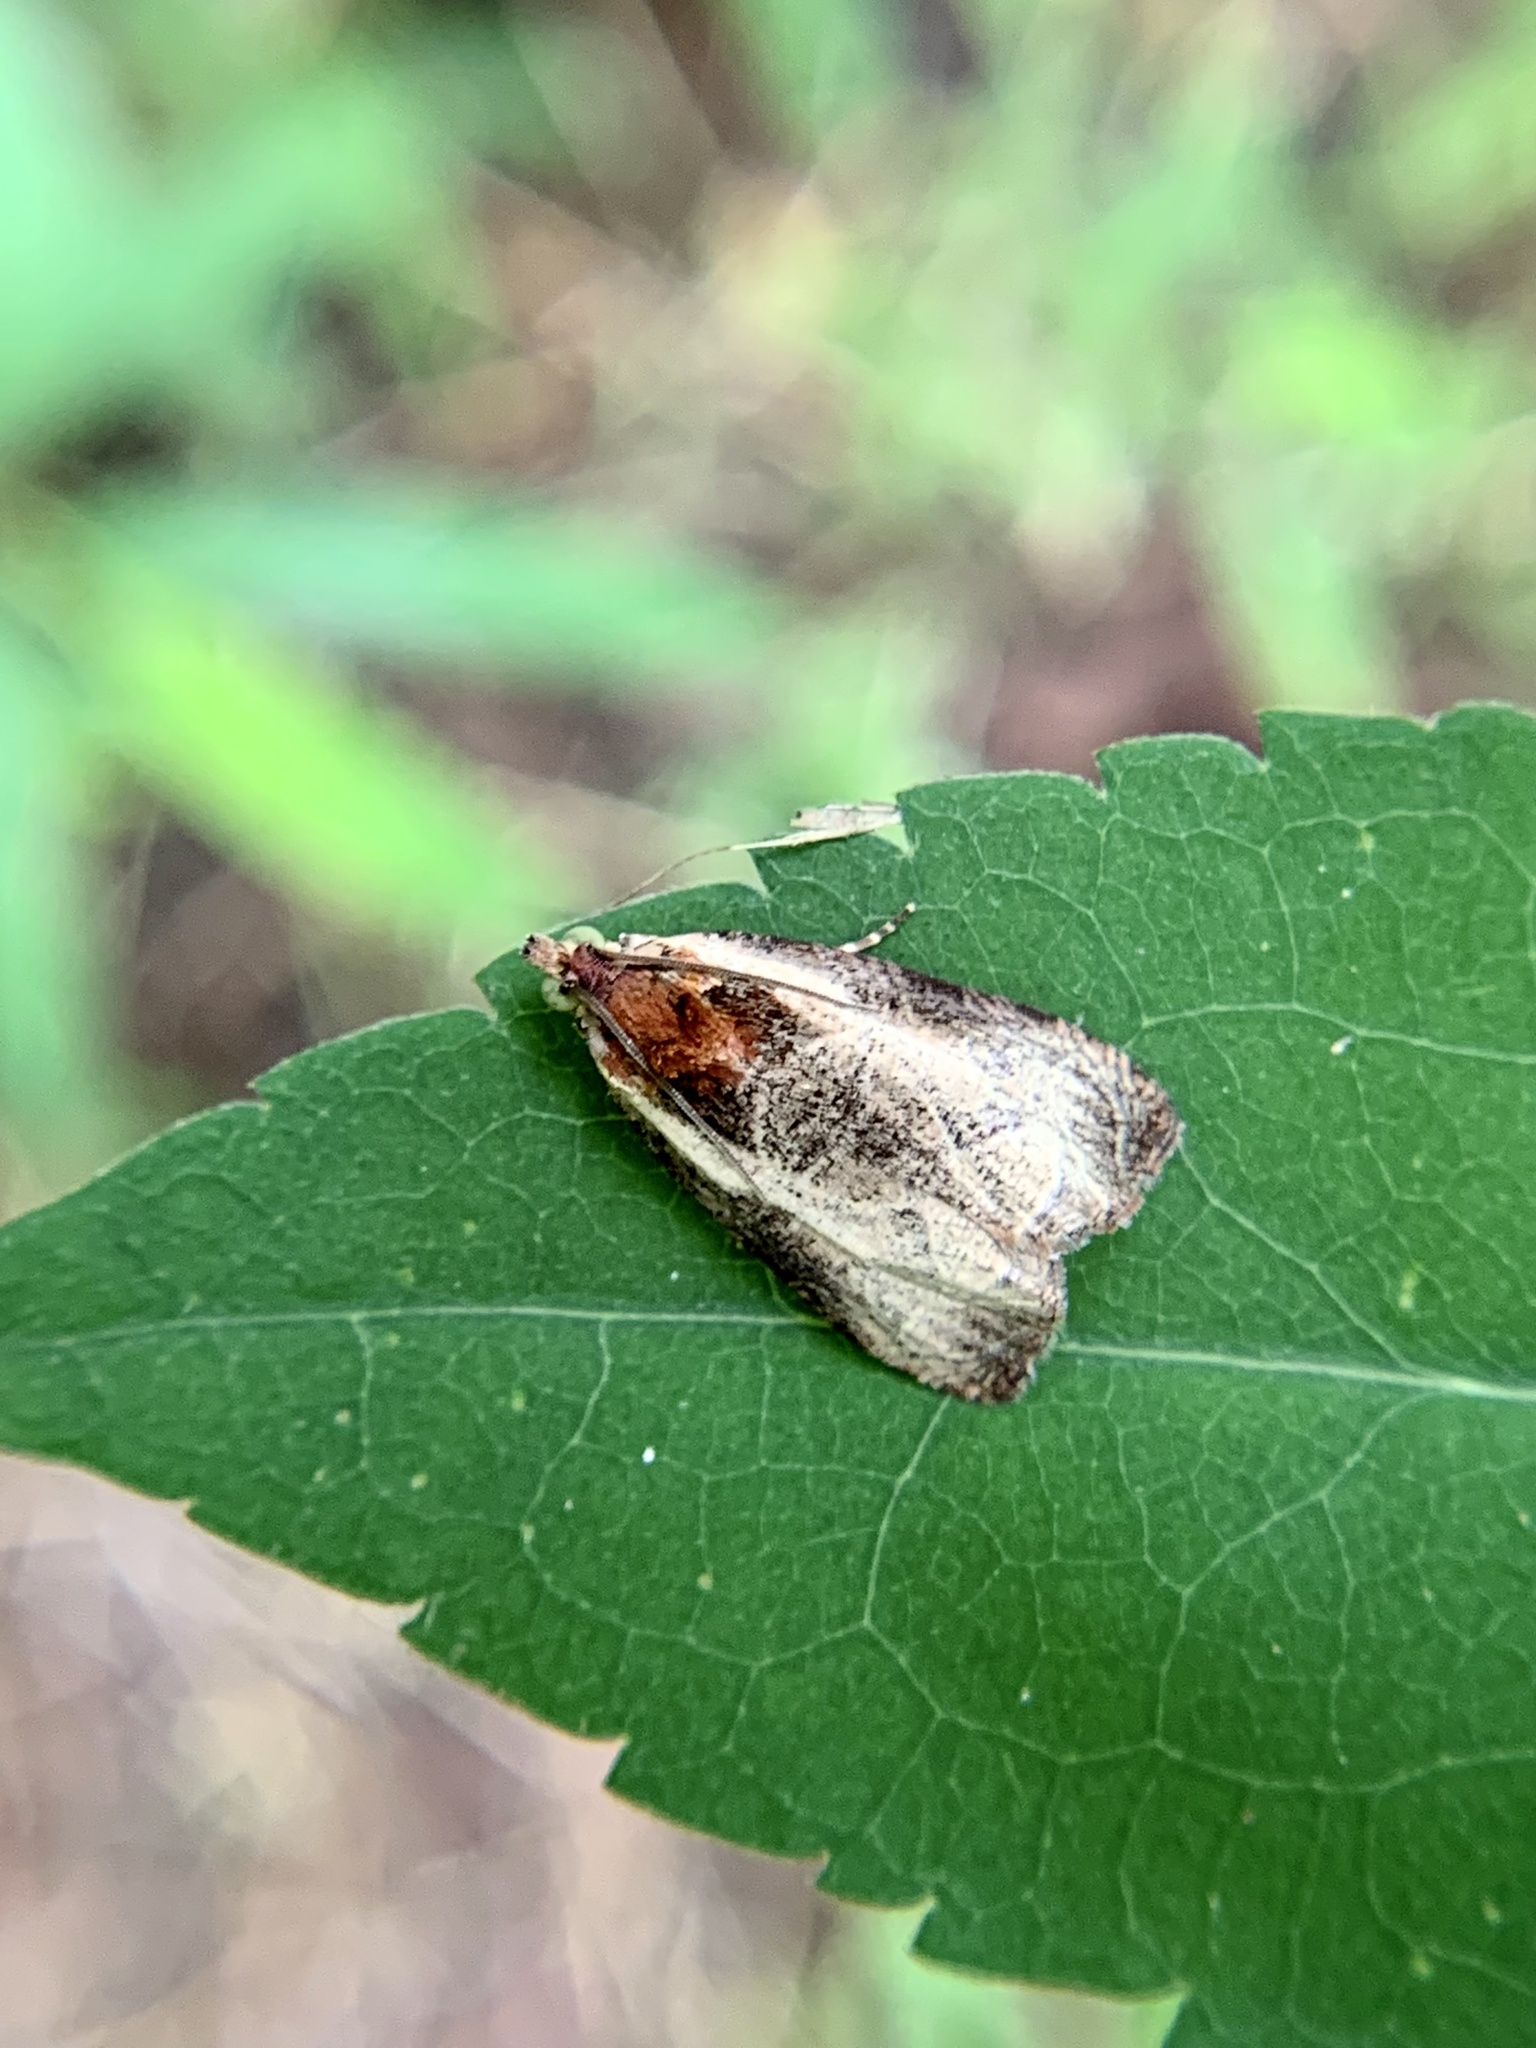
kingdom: Animalia
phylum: Arthropoda
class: Insecta
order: Lepidoptera
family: Tortricidae
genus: Olethreutes
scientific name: Olethreutes inornatana
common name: Inornate olethreutes moth
